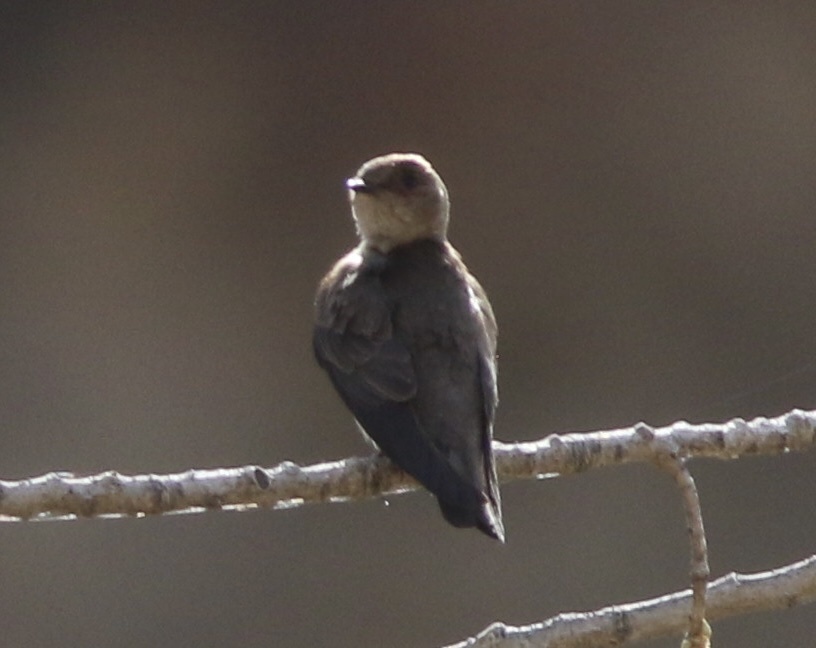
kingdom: Animalia
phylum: Chordata
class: Aves
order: Passeriformes
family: Hirundinidae
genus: Stelgidopteryx
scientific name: Stelgidopteryx serripennis
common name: Northern rough-winged swallow
